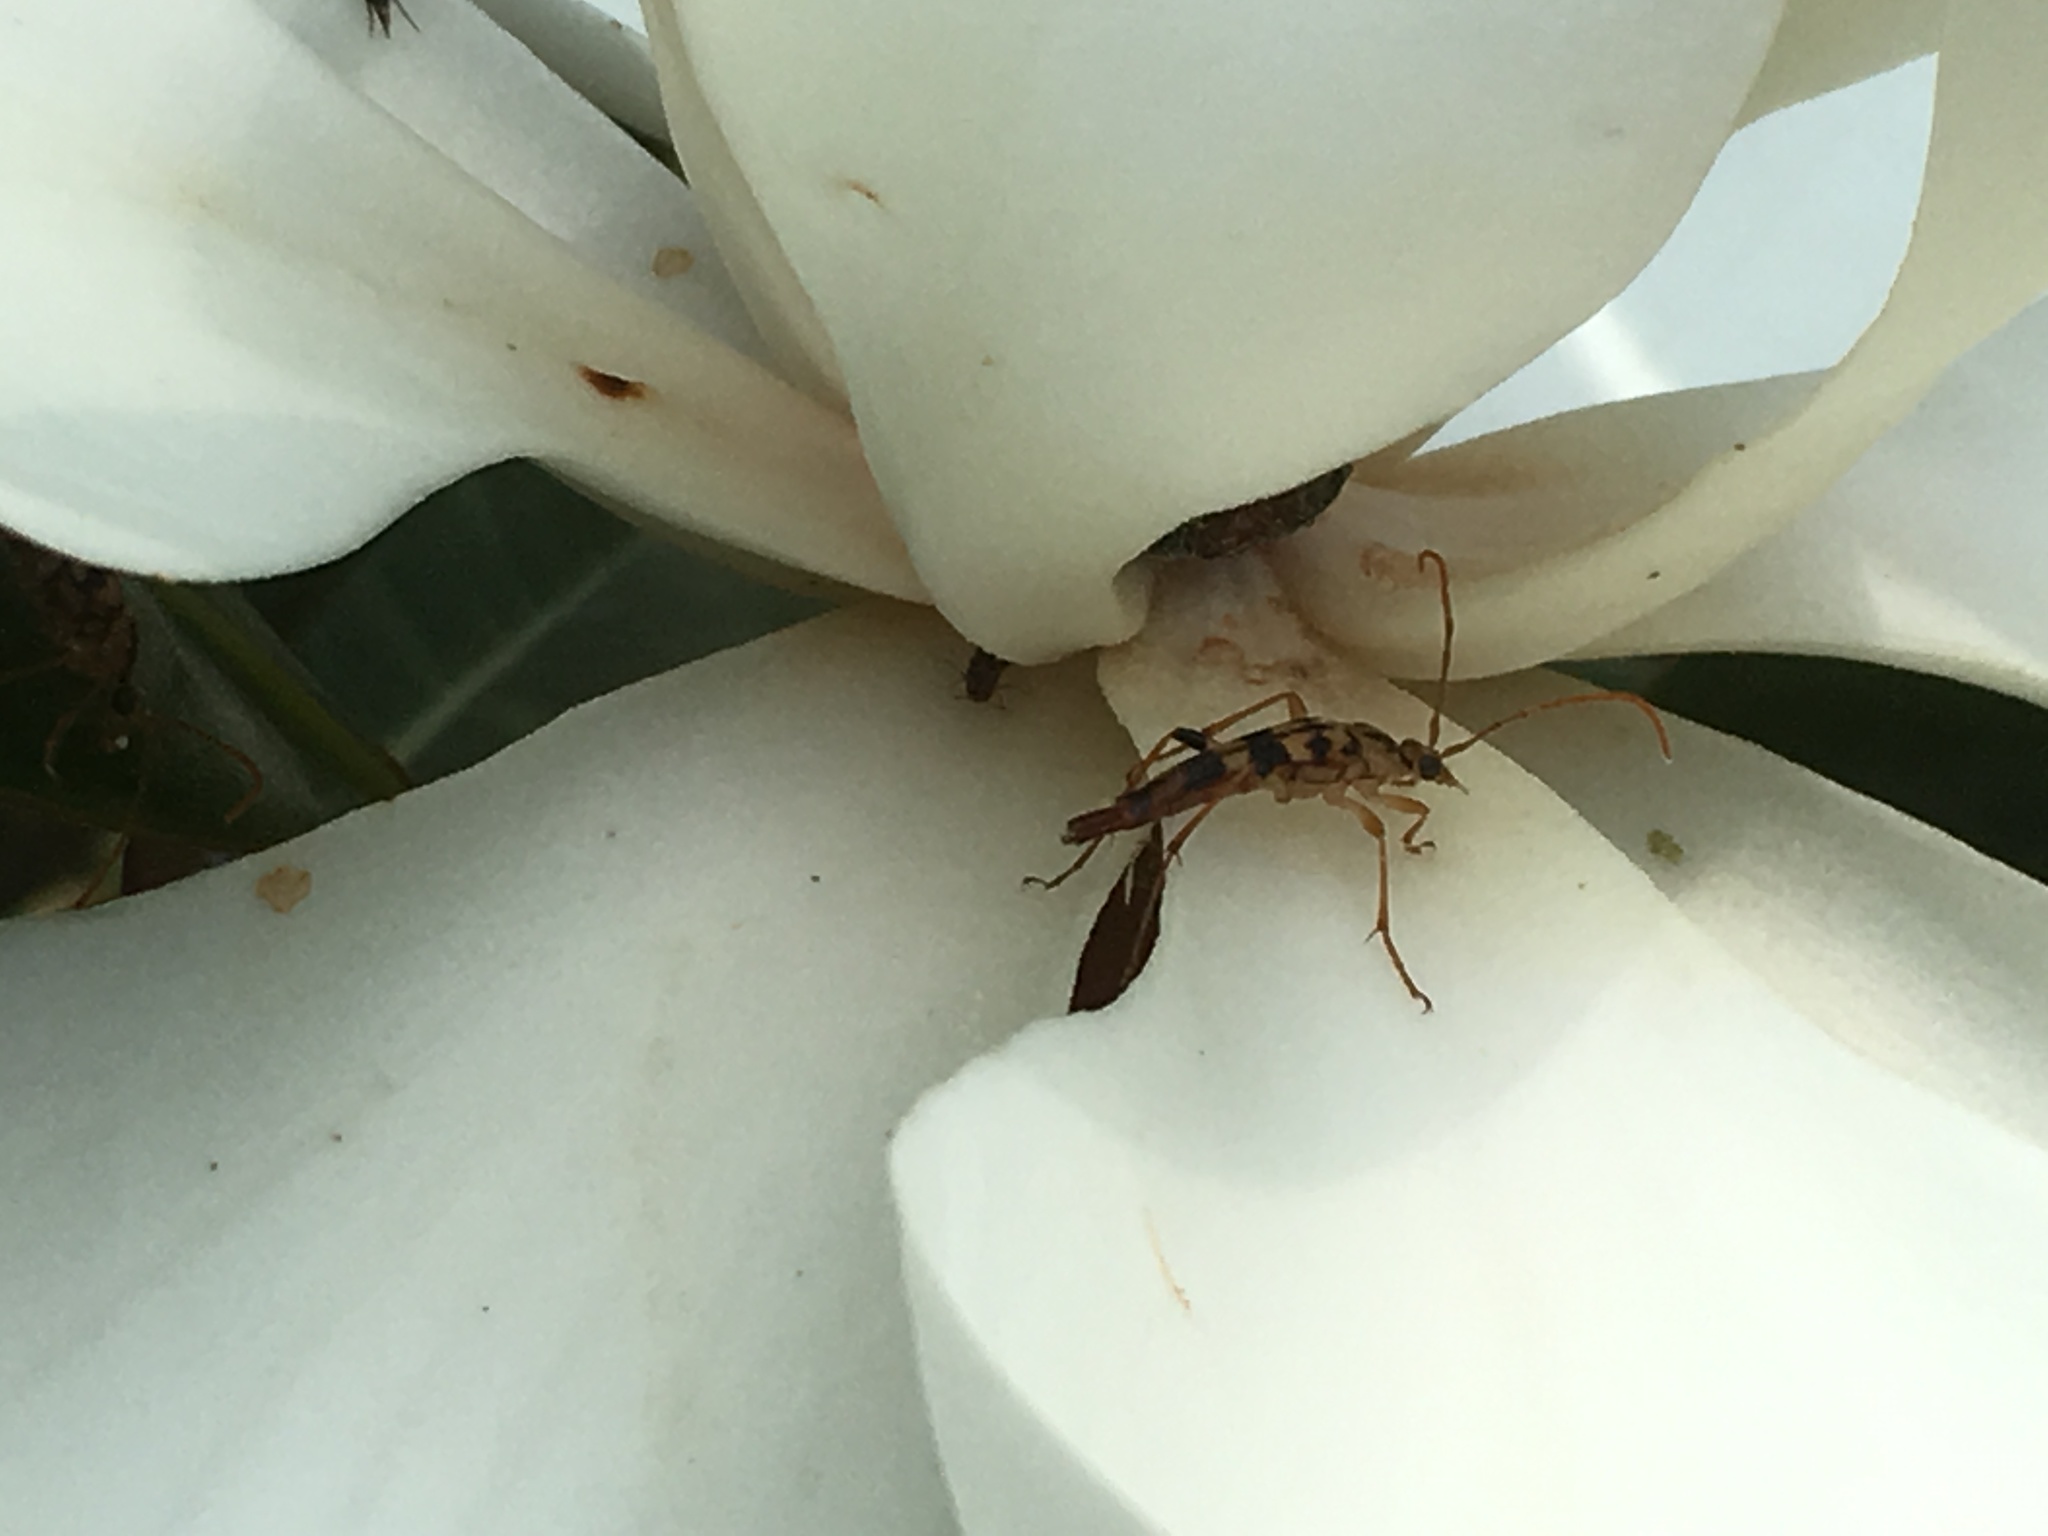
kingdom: Animalia
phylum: Arthropoda
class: Insecta
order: Coleoptera
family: Cerambycidae
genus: Strangalia
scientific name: Strangalia luteicornis
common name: Yellow-horned flower longhorn beetle
